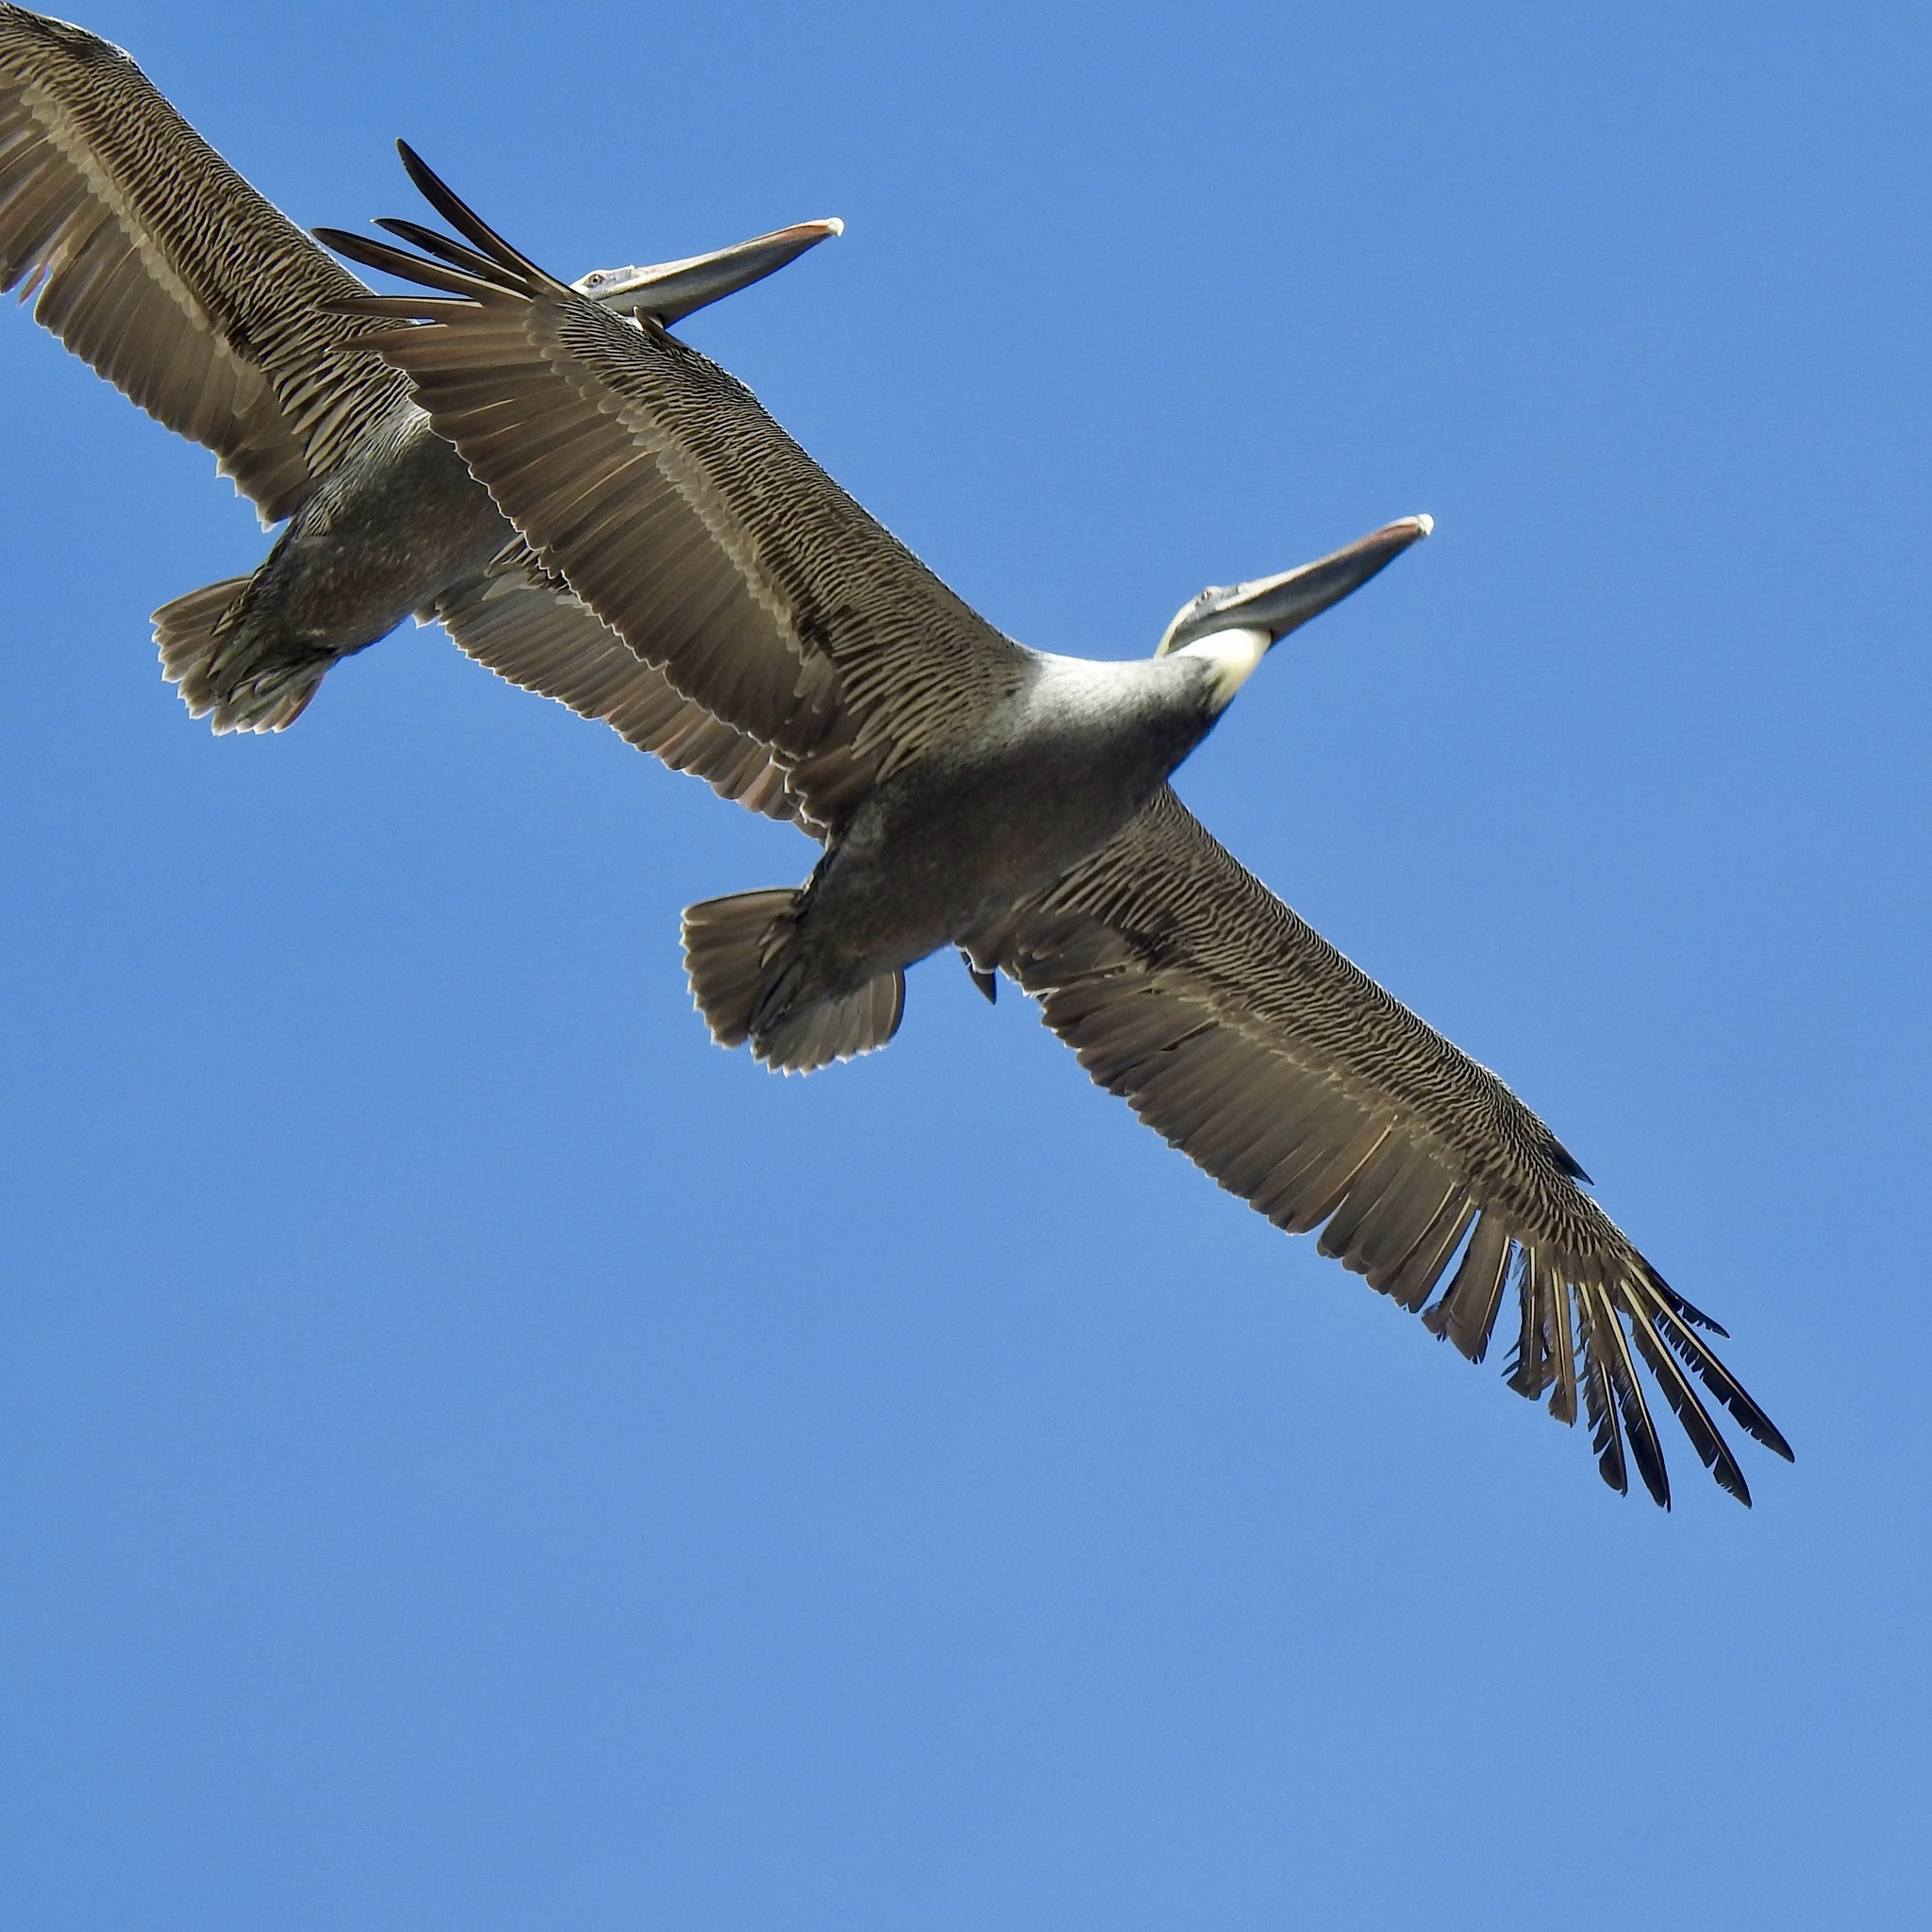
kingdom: Animalia
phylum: Chordata
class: Aves
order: Pelecaniformes
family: Pelecanidae
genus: Pelecanus
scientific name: Pelecanus occidentalis
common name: Brown pelican
